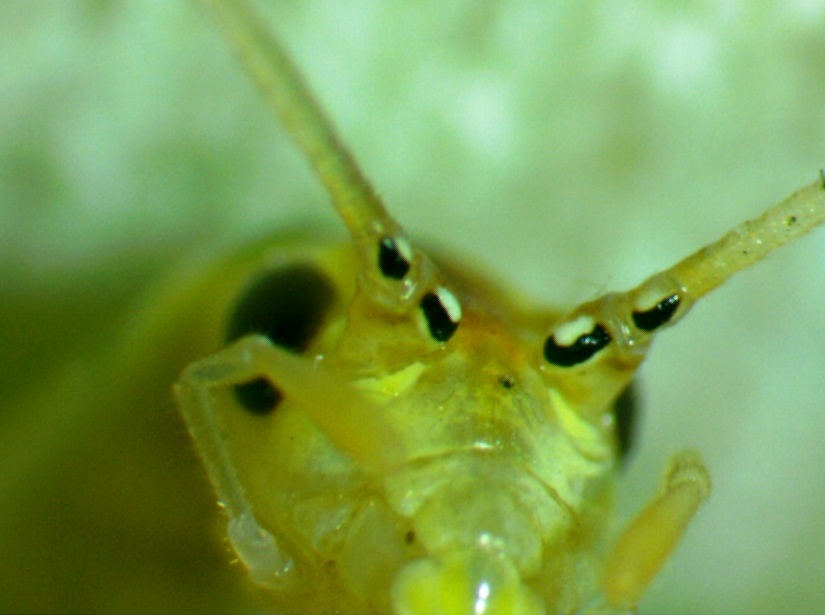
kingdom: Animalia
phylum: Arthropoda
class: Insecta
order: Orthoptera
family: Gryllidae
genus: Oecanthus
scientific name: Oecanthus niveus
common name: Narrow-winged tree cricket
